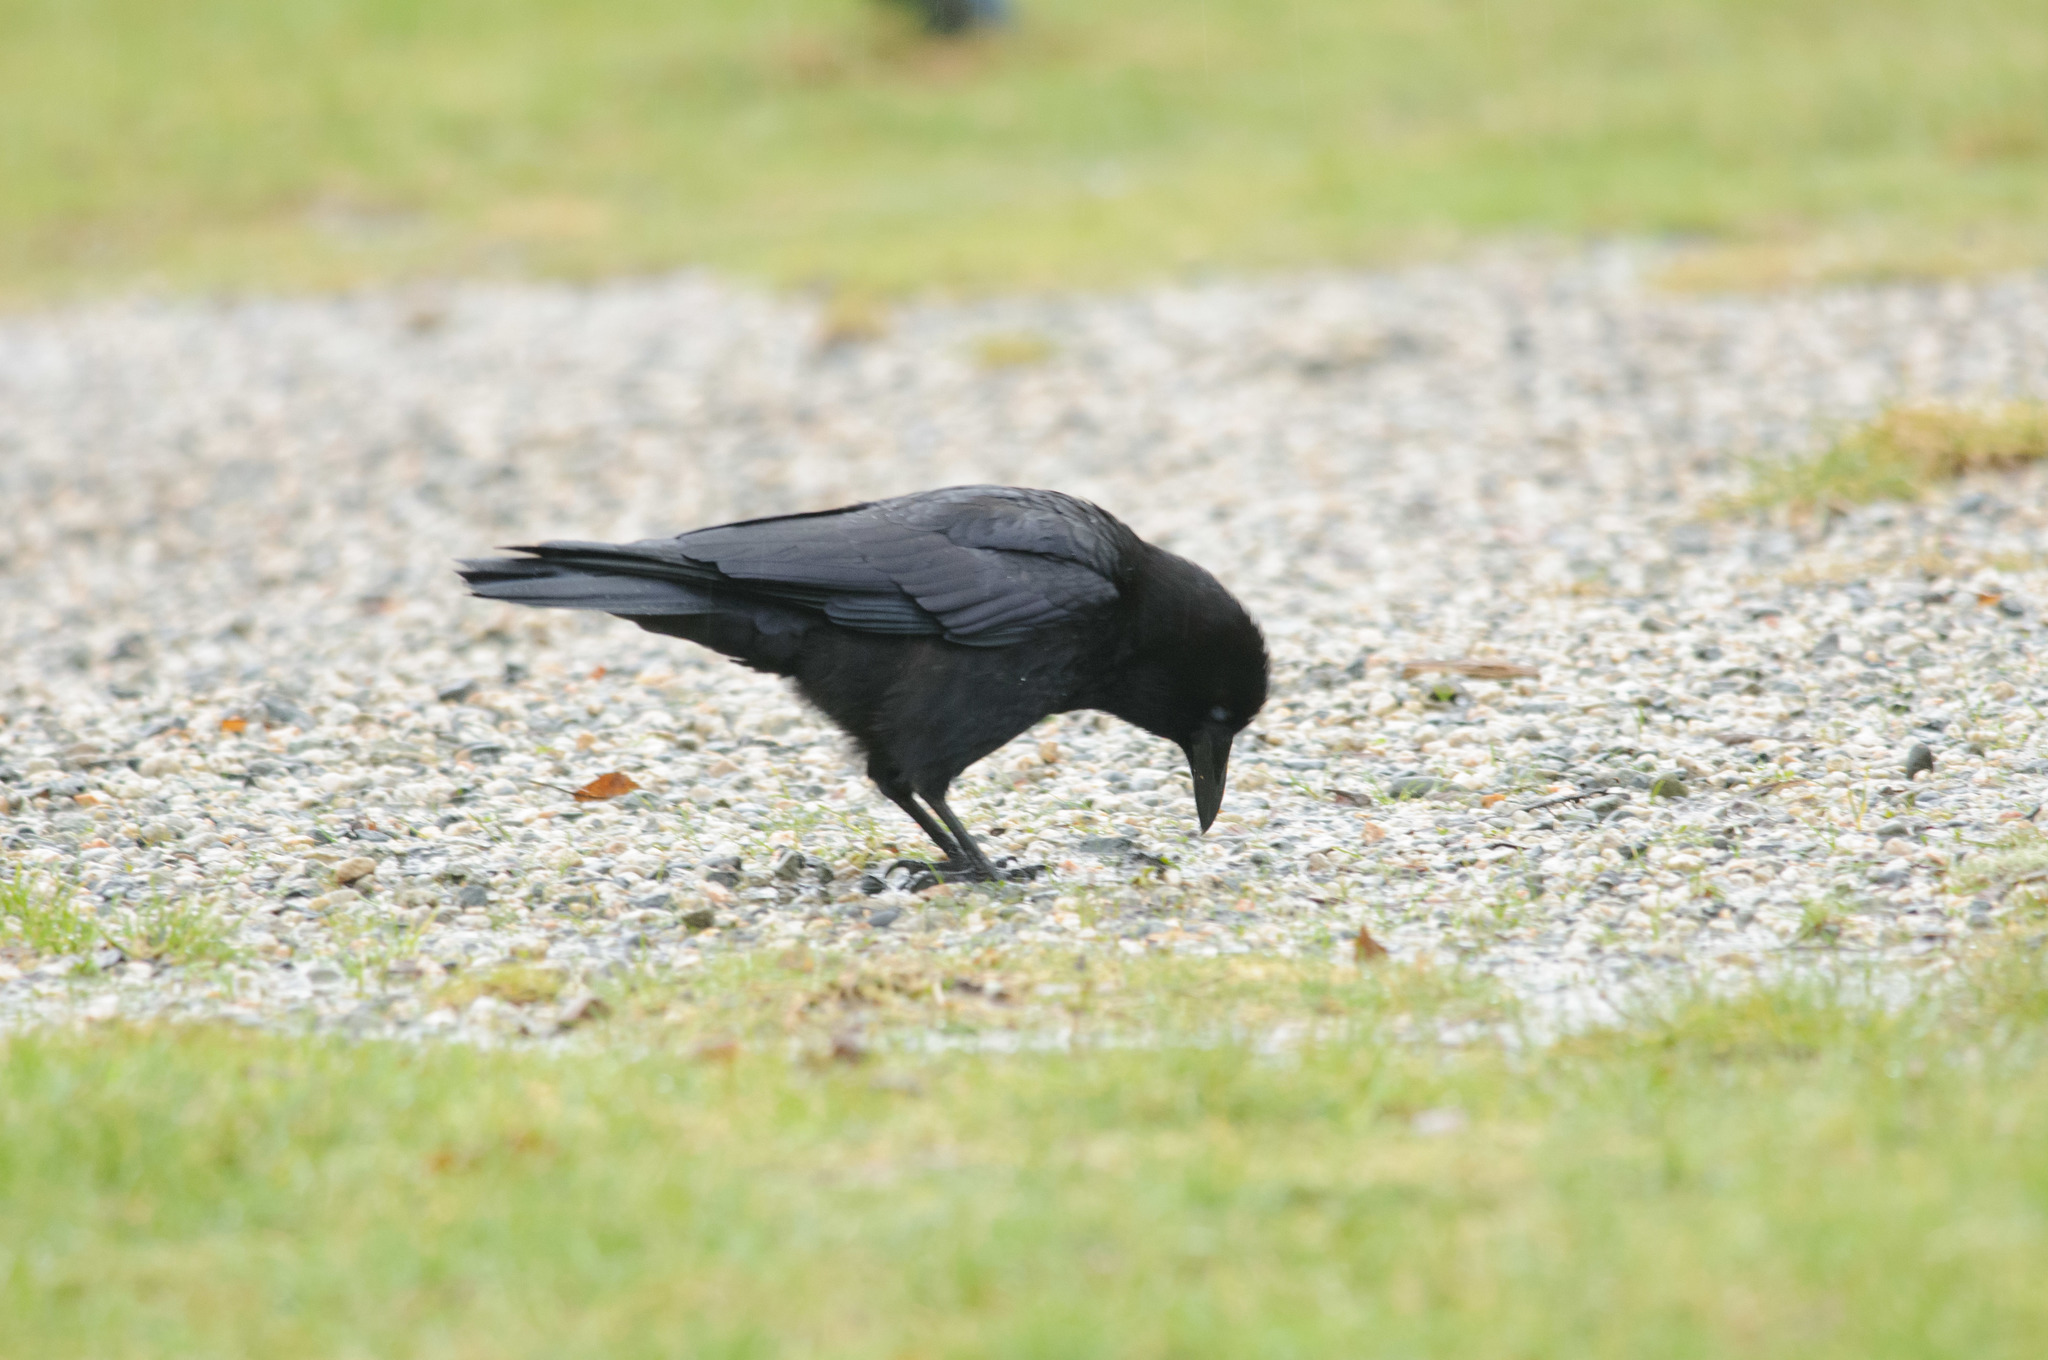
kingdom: Animalia
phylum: Chordata
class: Aves
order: Passeriformes
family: Corvidae
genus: Corvus
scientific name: Corvus corax
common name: Common raven
